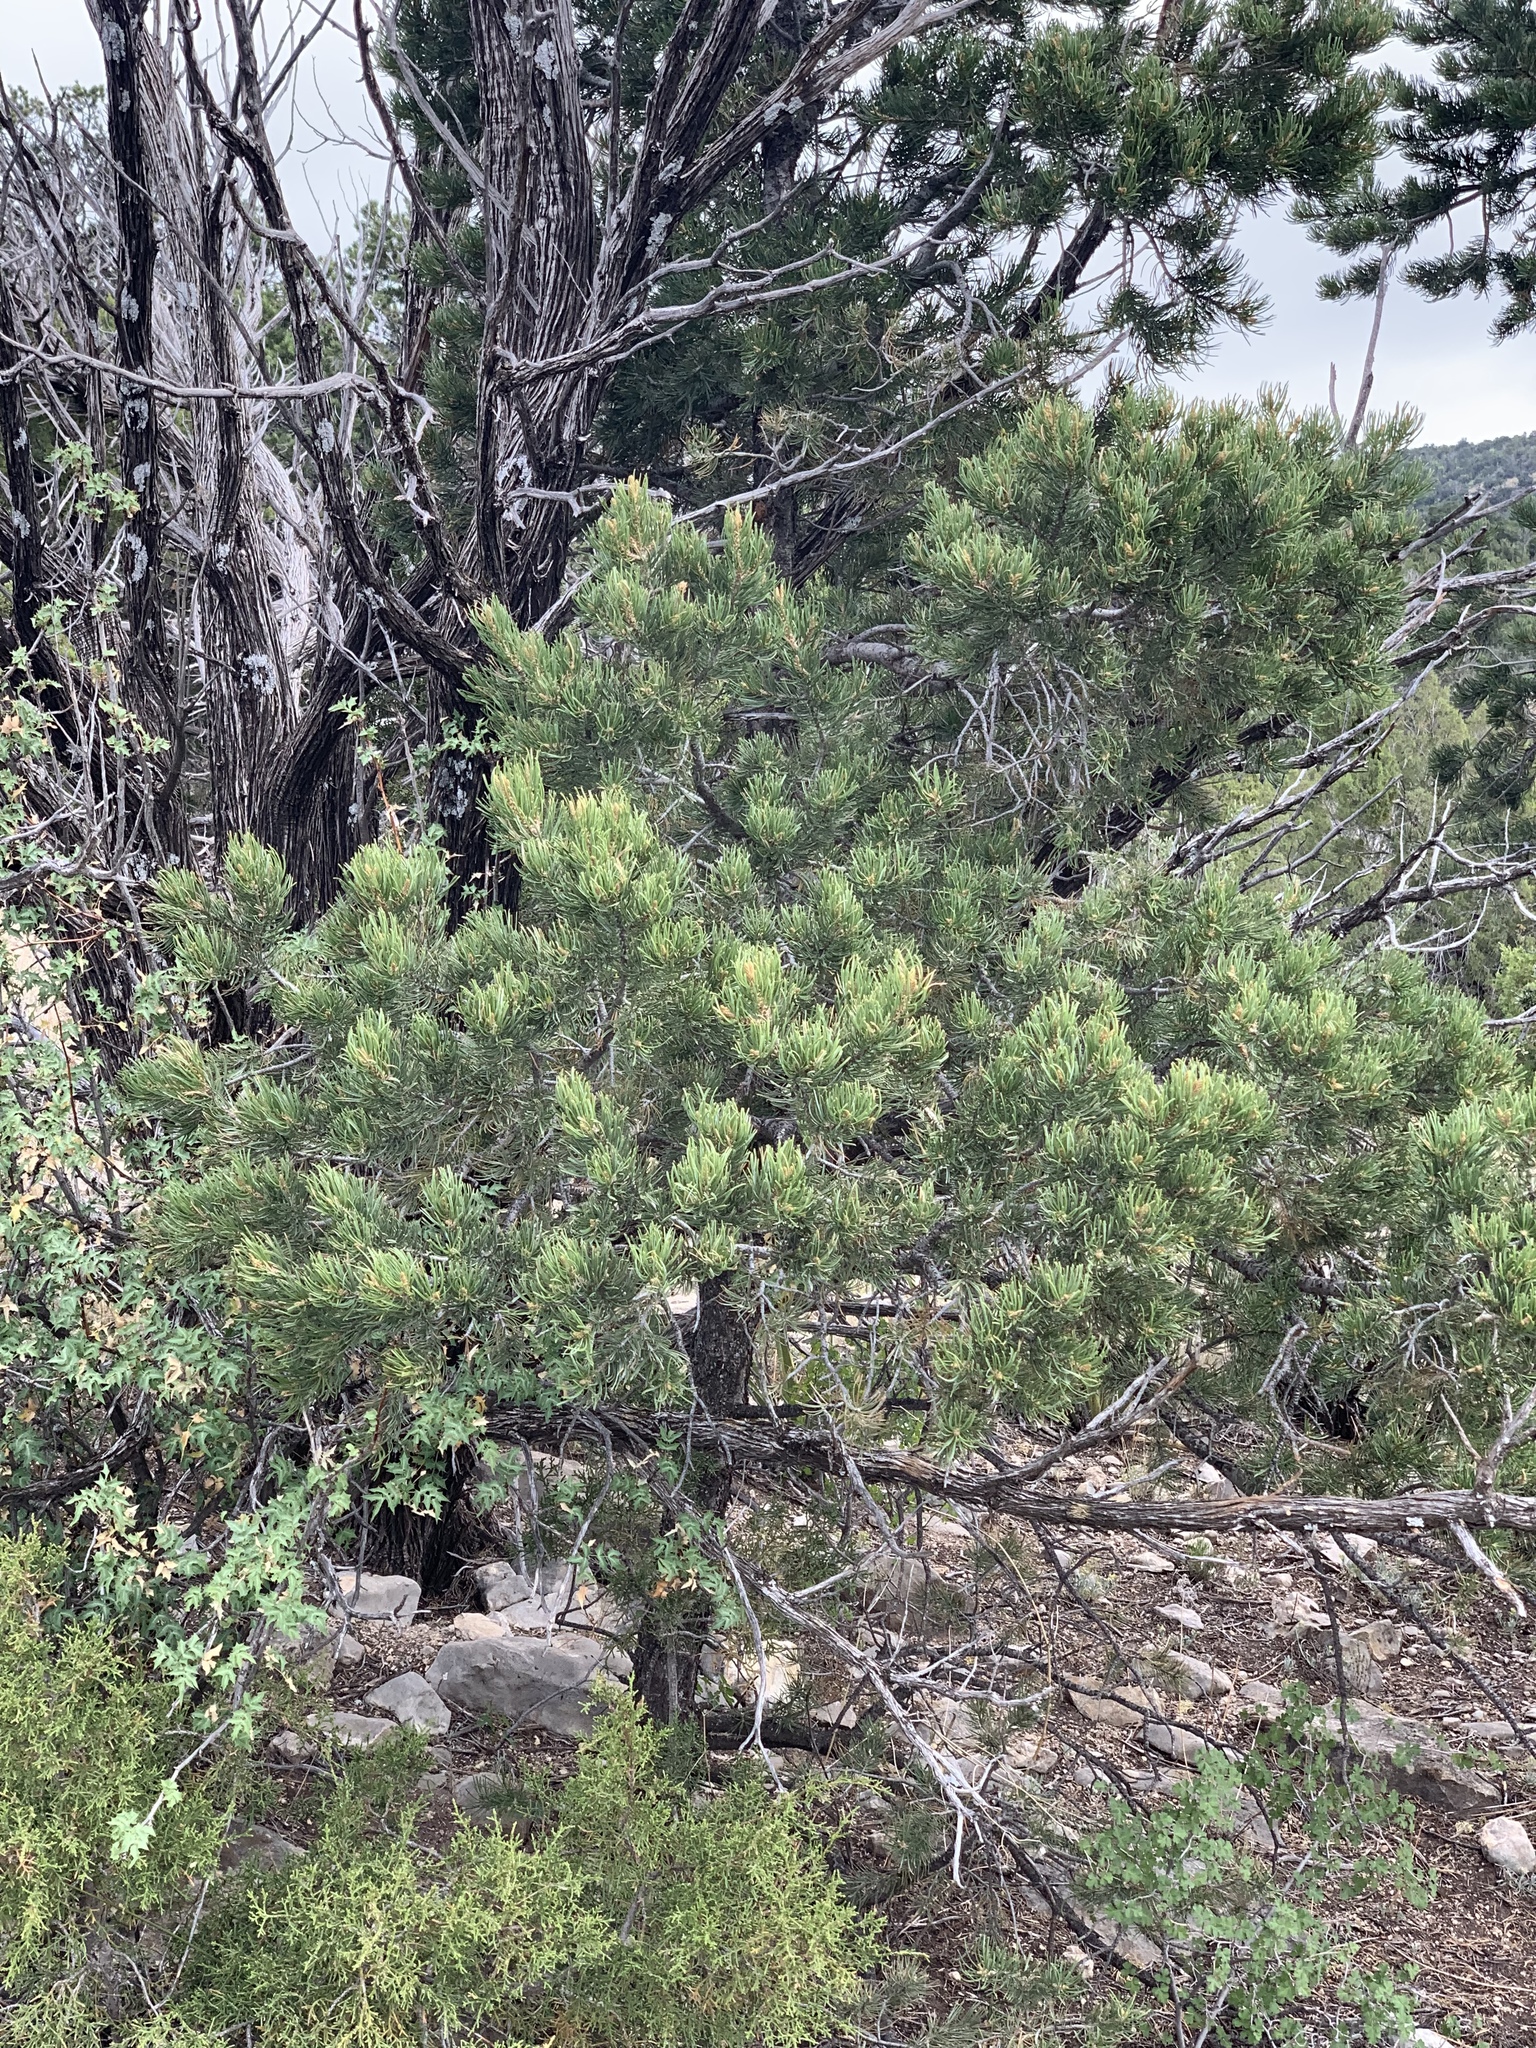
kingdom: Plantae
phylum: Tracheophyta
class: Pinopsida
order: Pinales
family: Pinaceae
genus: Pinus
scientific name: Pinus edulis
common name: Colorado pinyon
